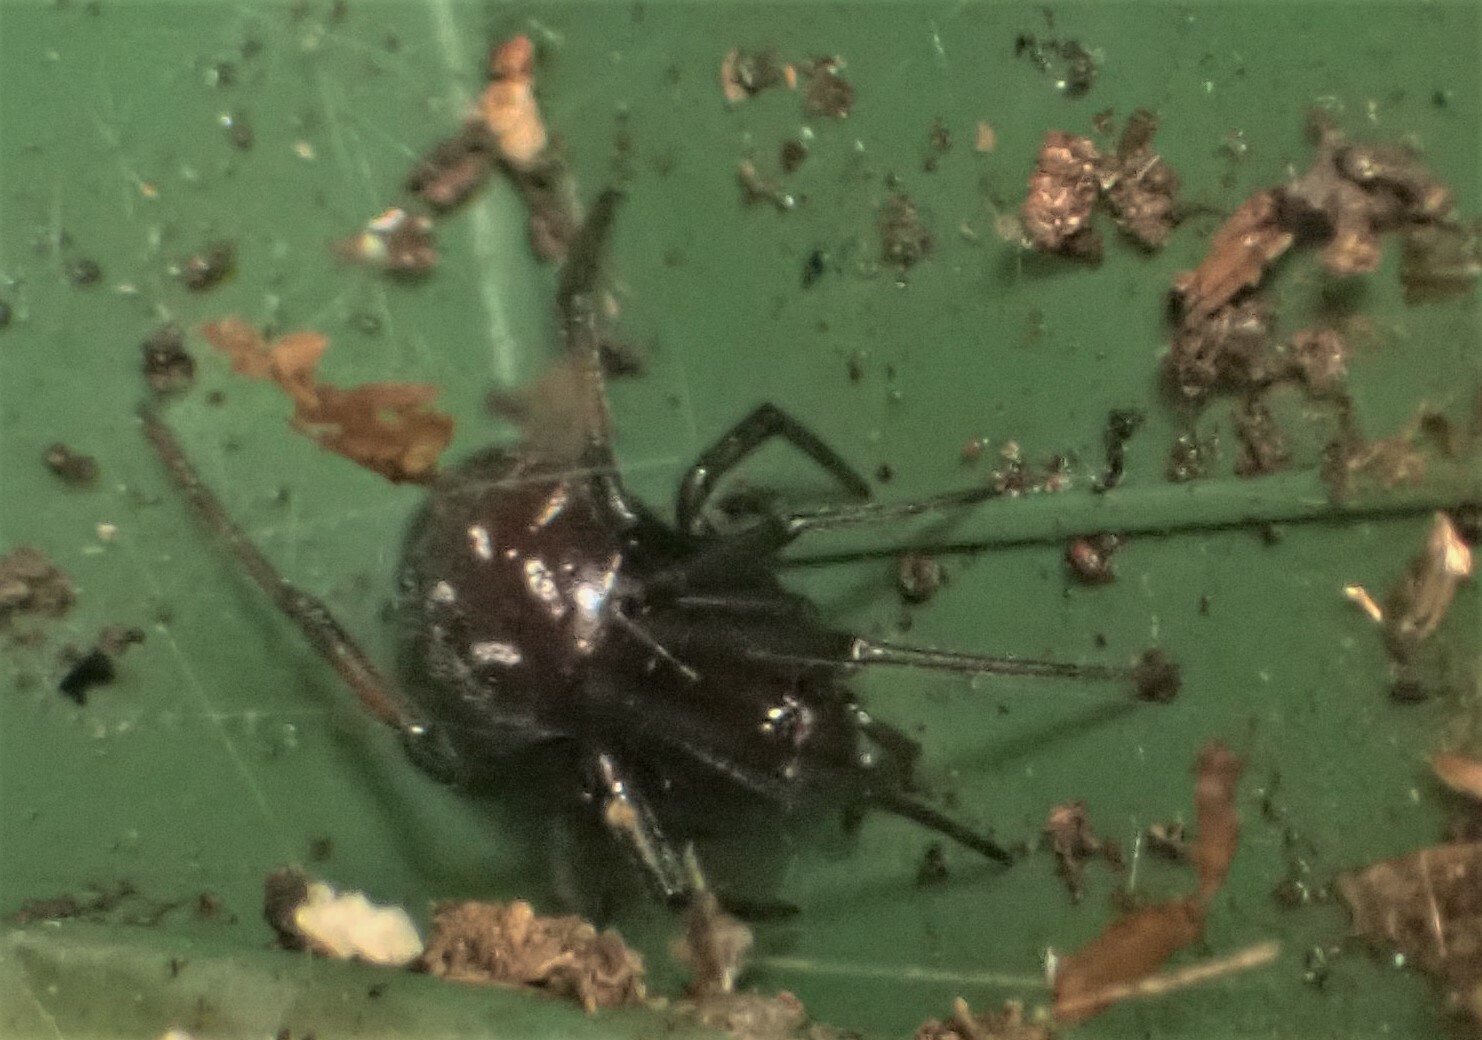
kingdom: Animalia
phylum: Arthropoda
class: Arachnida
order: Araneae
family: Theridiidae
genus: Steatoda
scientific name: Steatoda capensis
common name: Cobweb weaver
